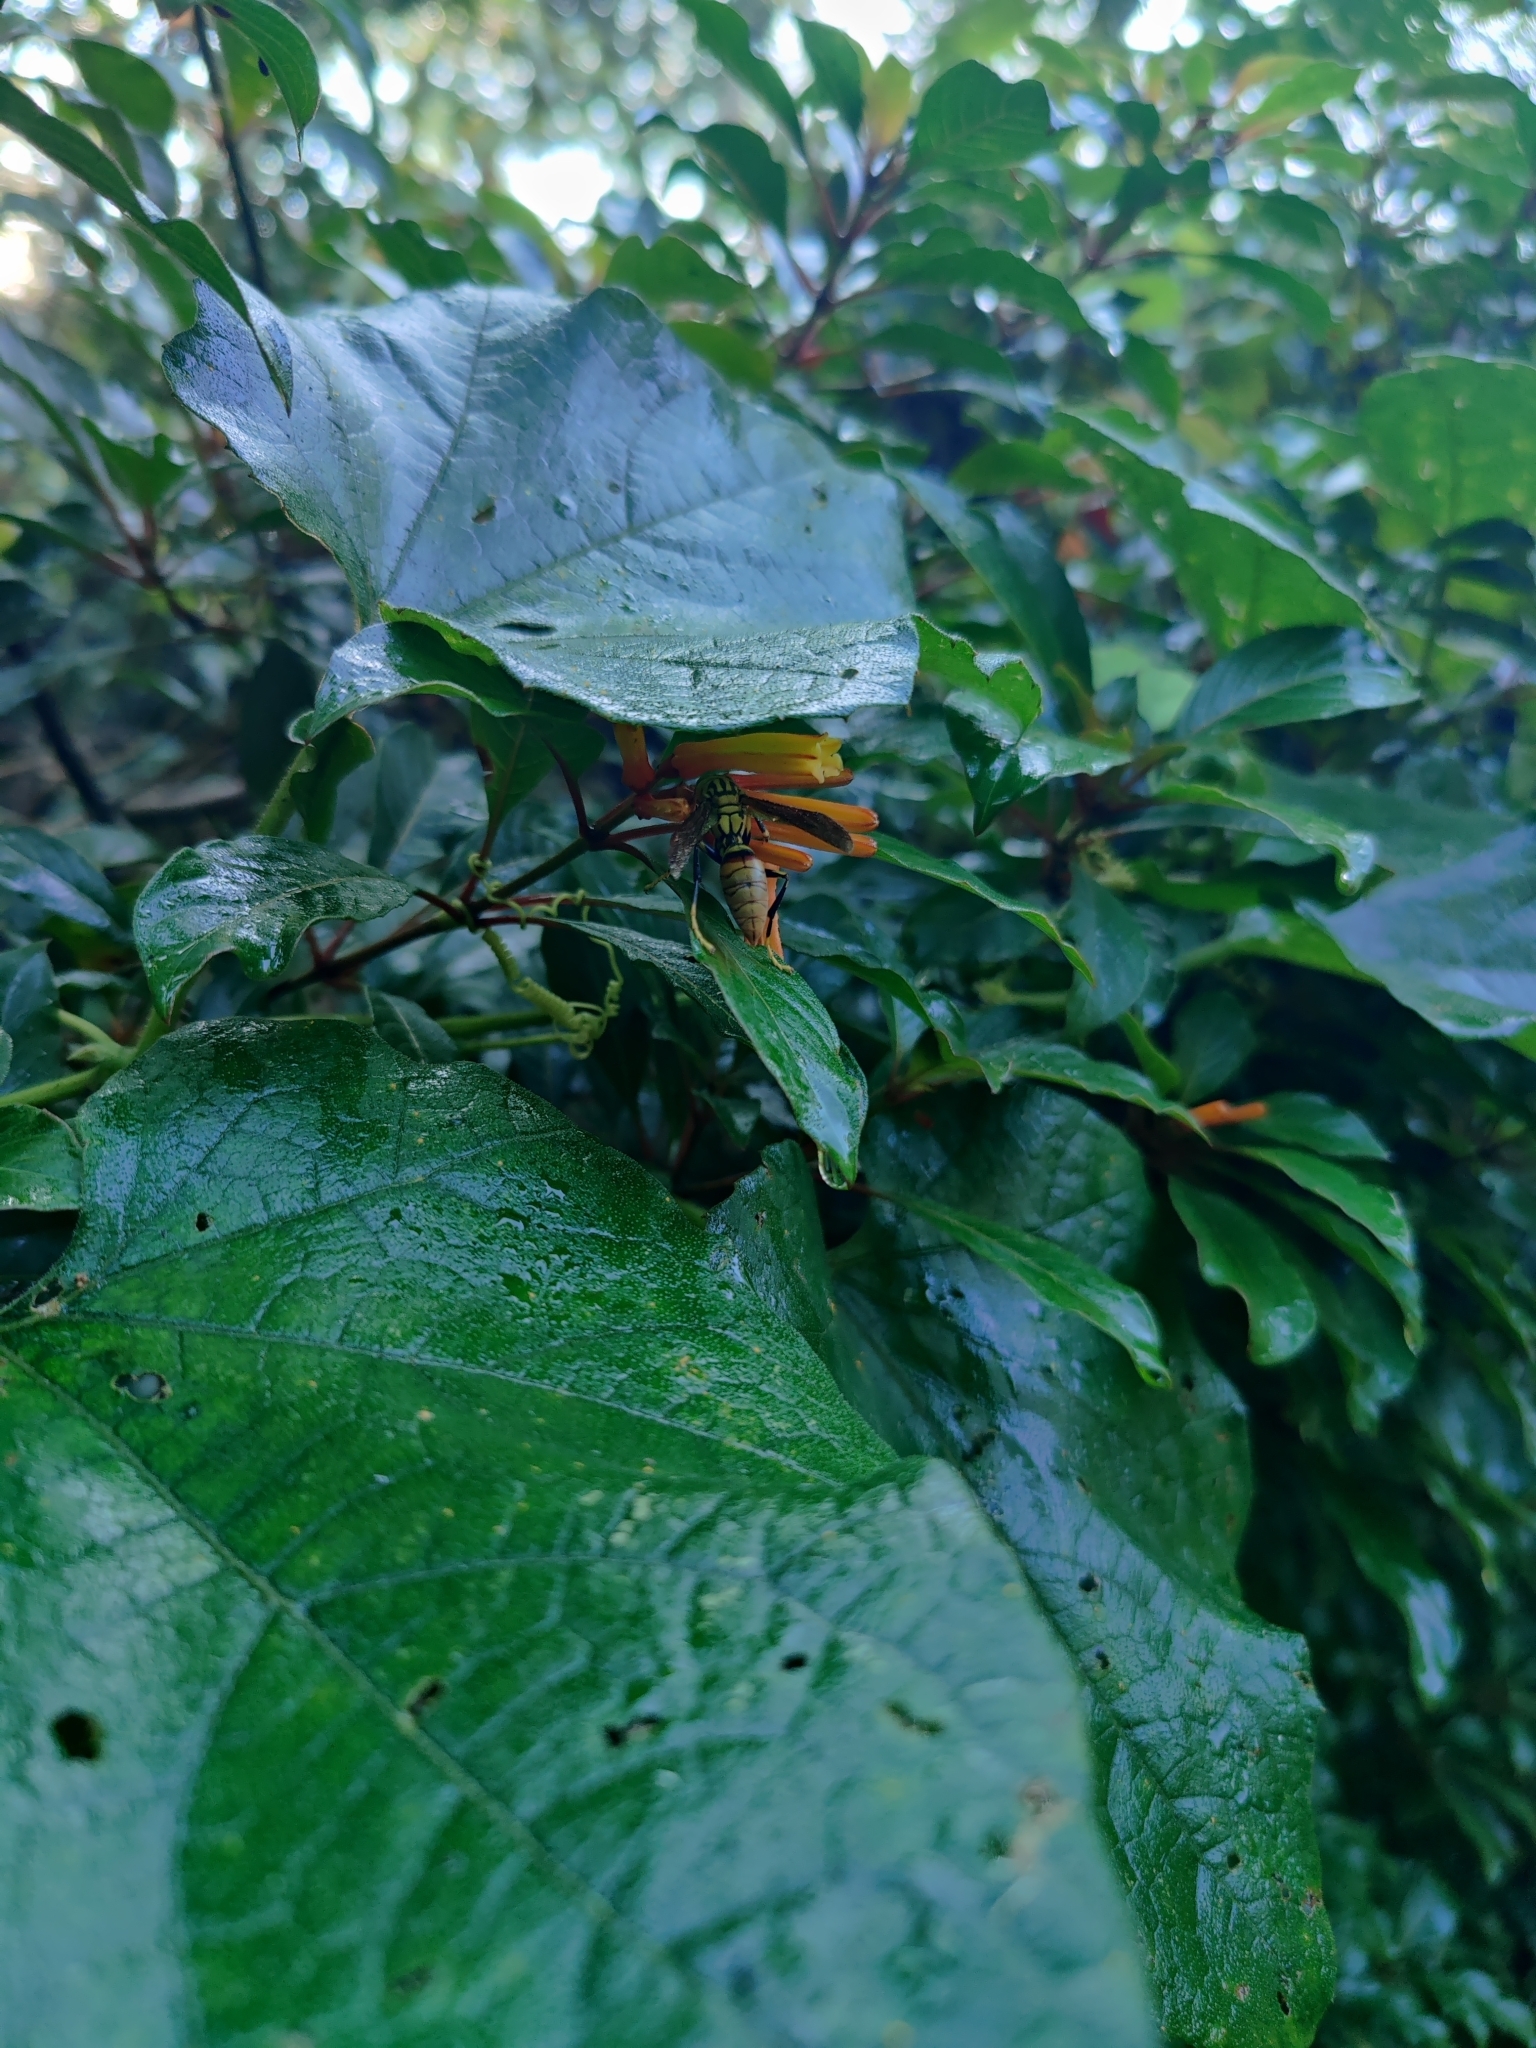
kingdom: Animalia
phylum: Arthropoda
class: Insecta
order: Hymenoptera
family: Eumenidae
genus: Polistes
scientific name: Polistes olivaceus
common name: Paper wasp
